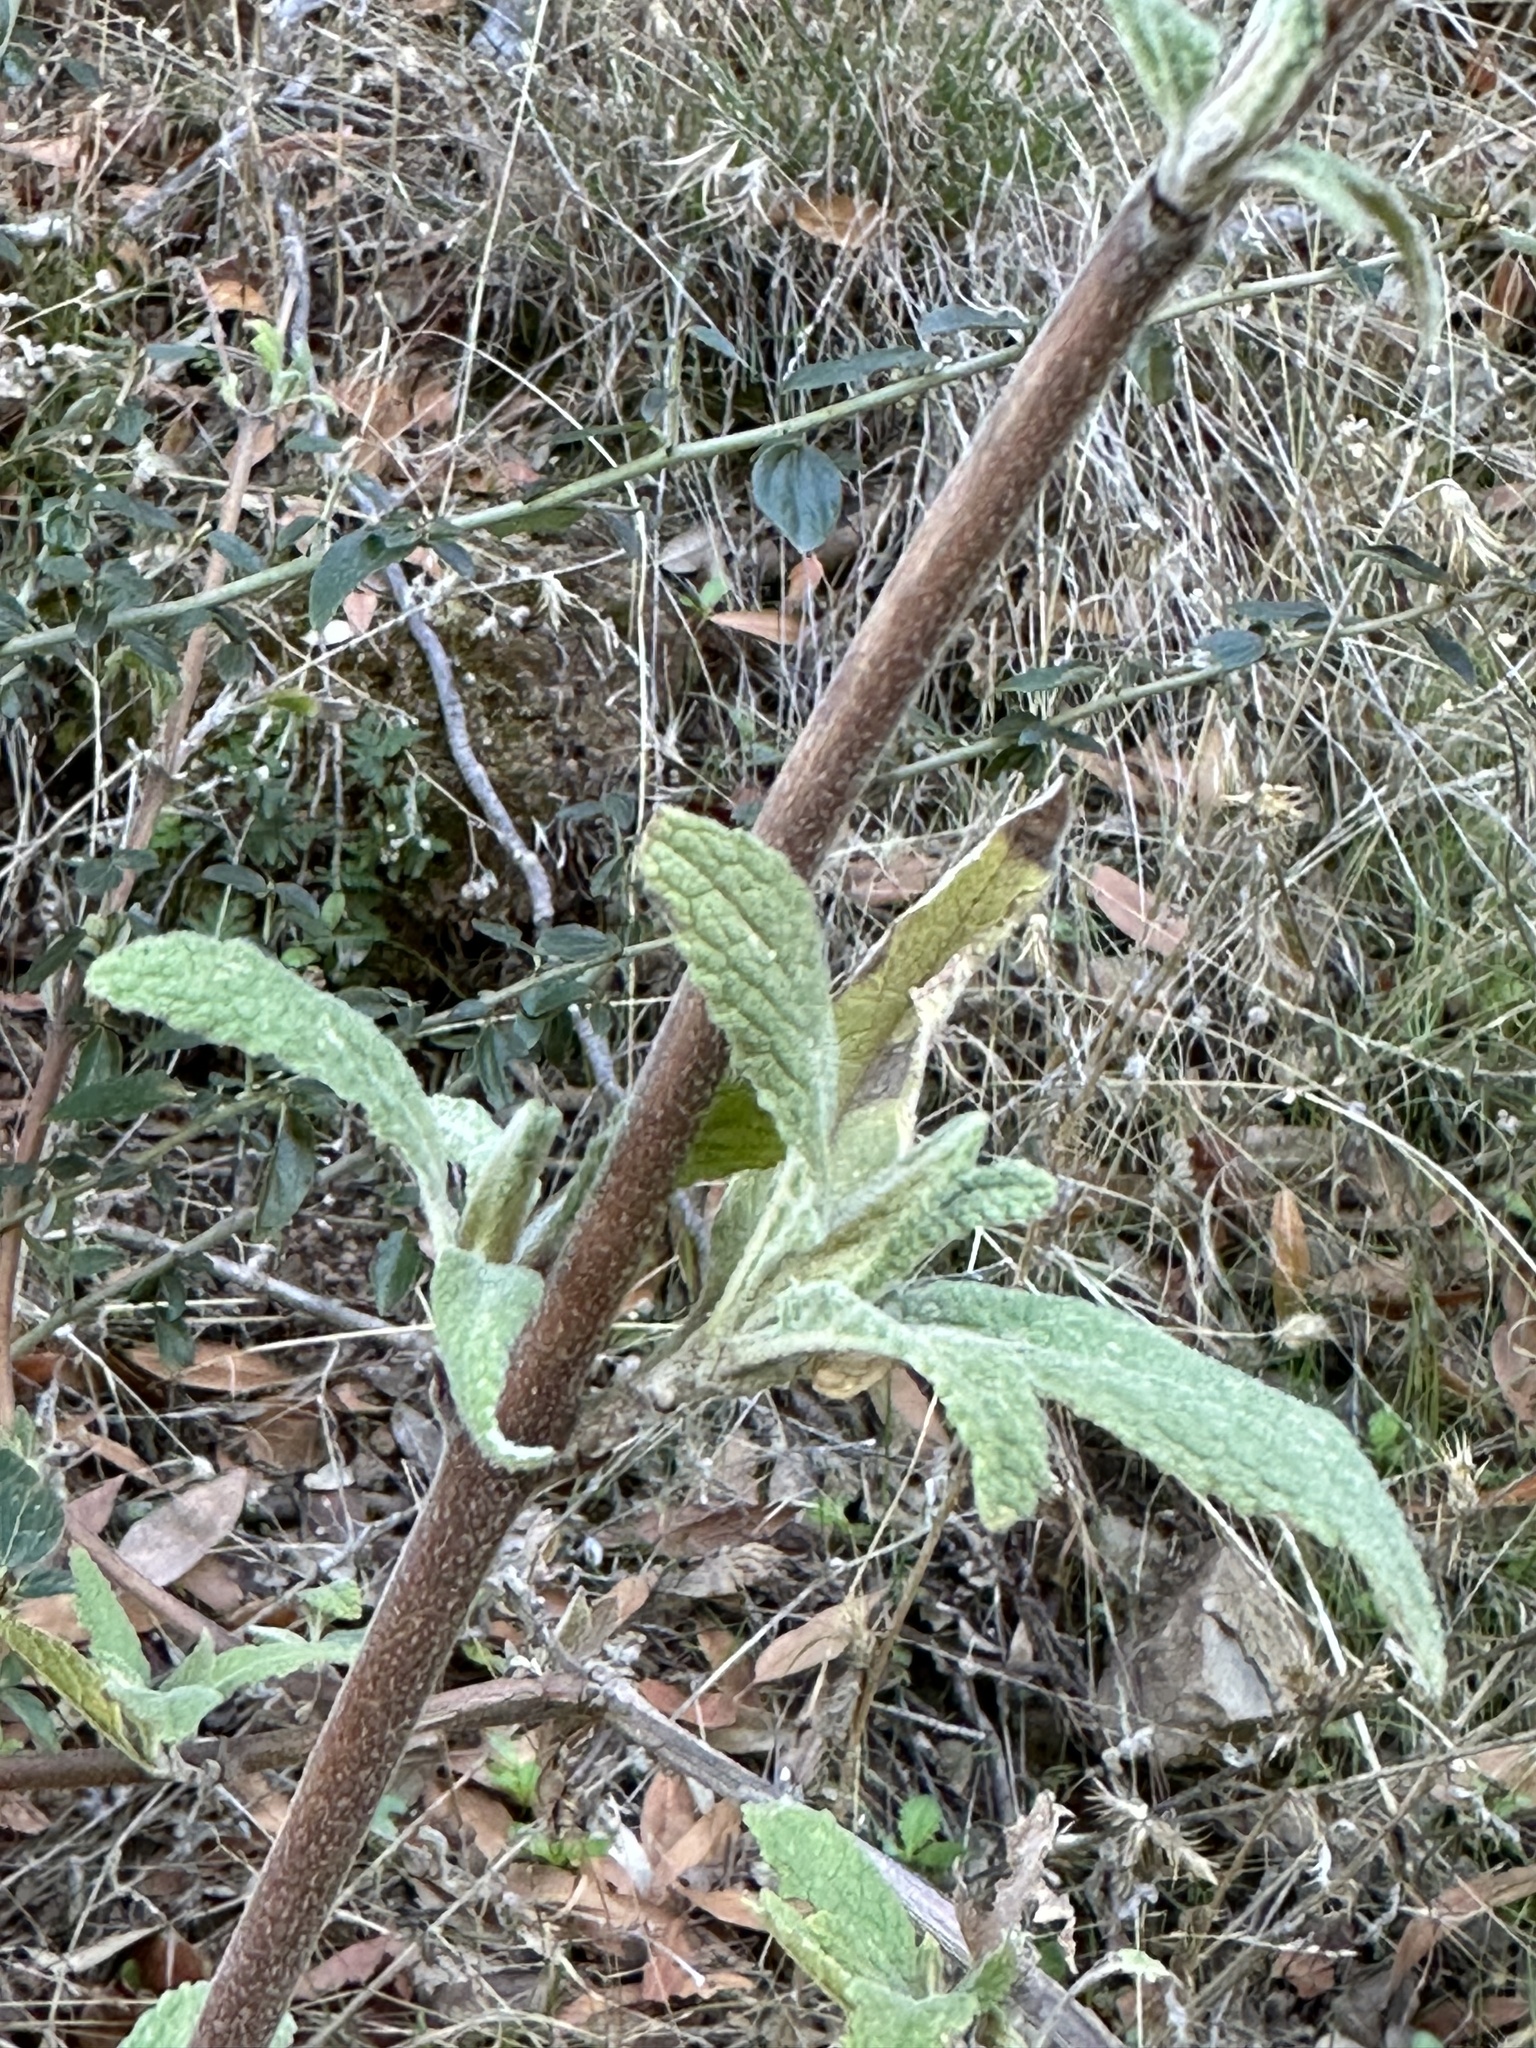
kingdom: Plantae
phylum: Tracheophyta
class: Magnoliopsida
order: Lamiales
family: Lamiaceae
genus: Lepechinia
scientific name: Lepechinia calycina
